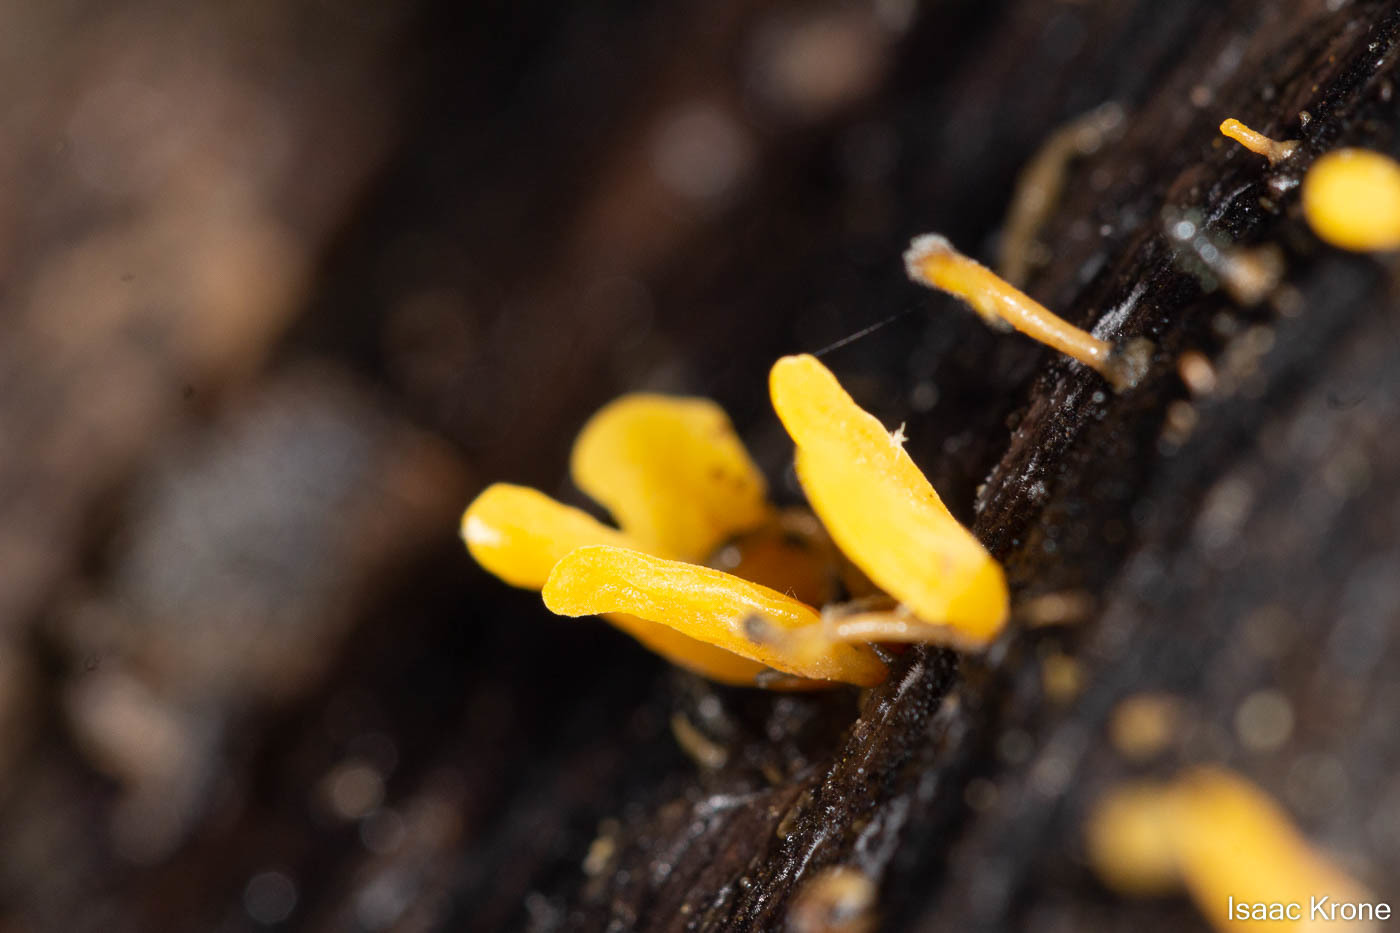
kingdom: Fungi
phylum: Basidiomycota
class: Dacrymycetes
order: Dacrymycetales
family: Dacrymycetaceae
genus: Calocera
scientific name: Calocera cornea
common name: Small stagshorn
